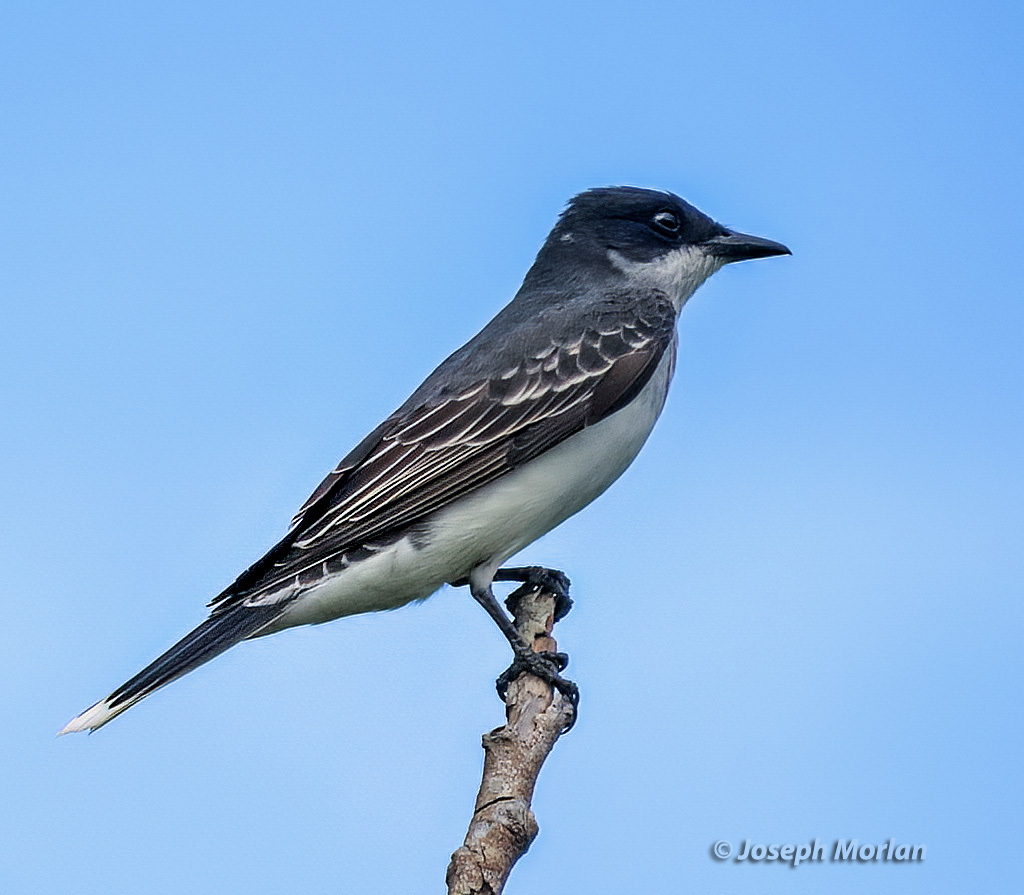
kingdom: Animalia
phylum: Chordata
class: Aves
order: Passeriformes
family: Tyrannidae
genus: Tyrannus
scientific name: Tyrannus tyrannus
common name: Eastern kingbird
